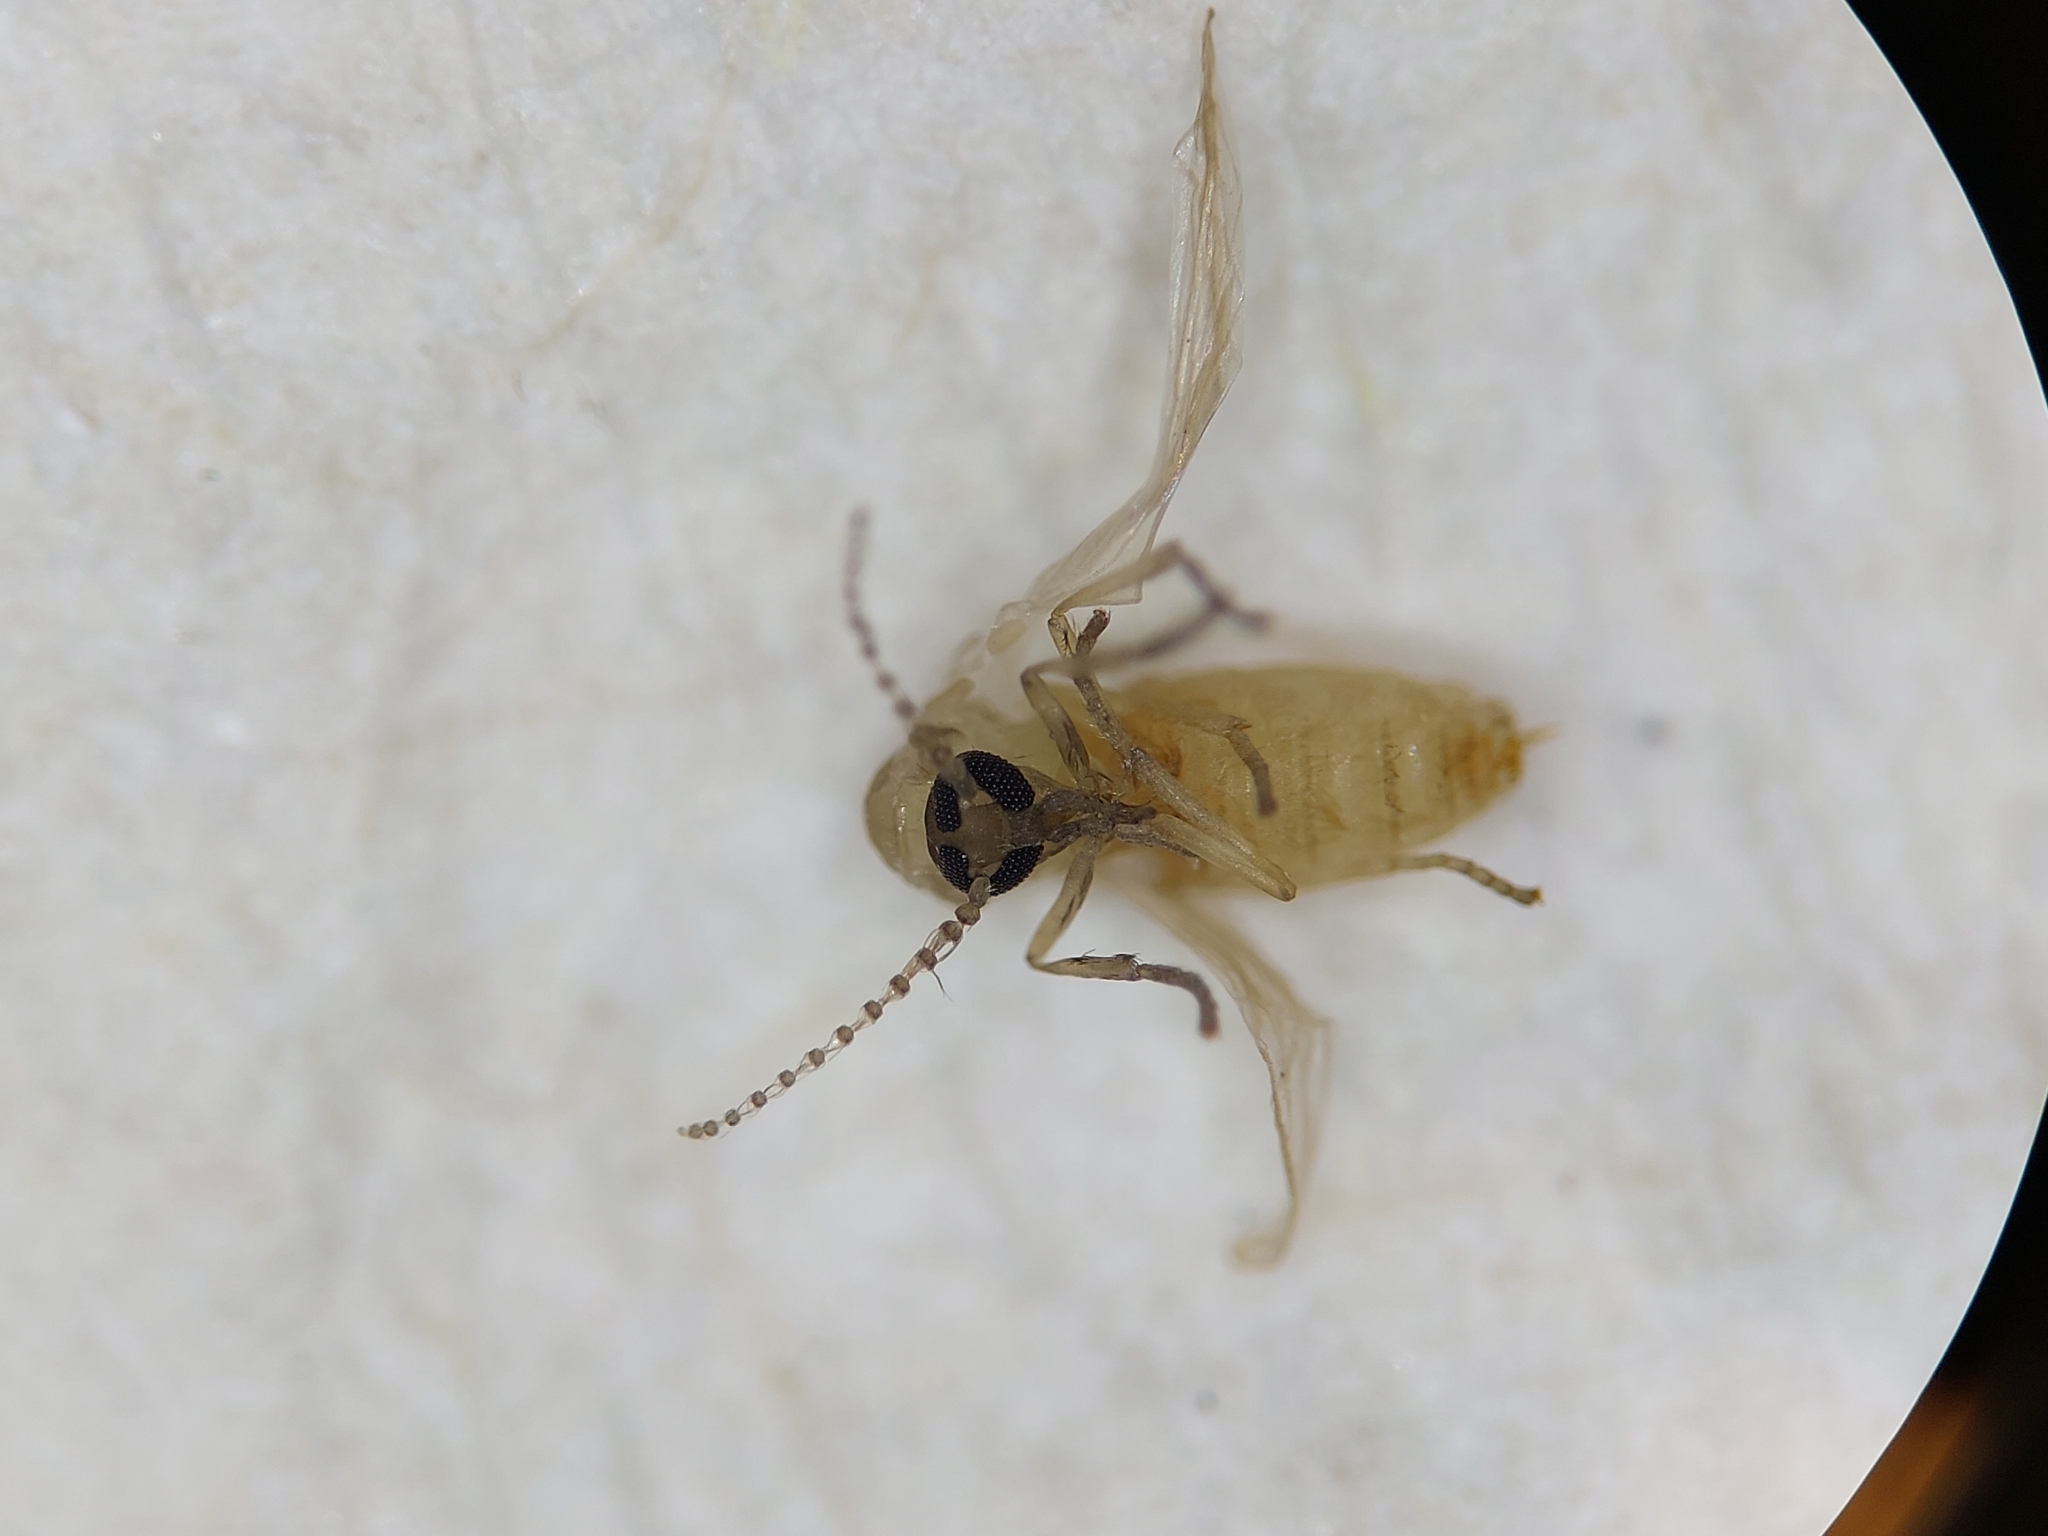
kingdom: Animalia
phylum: Arthropoda
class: Insecta
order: Diptera
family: Psychodidae
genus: Psychoda
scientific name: Psychoda sigma
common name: Moth fly
